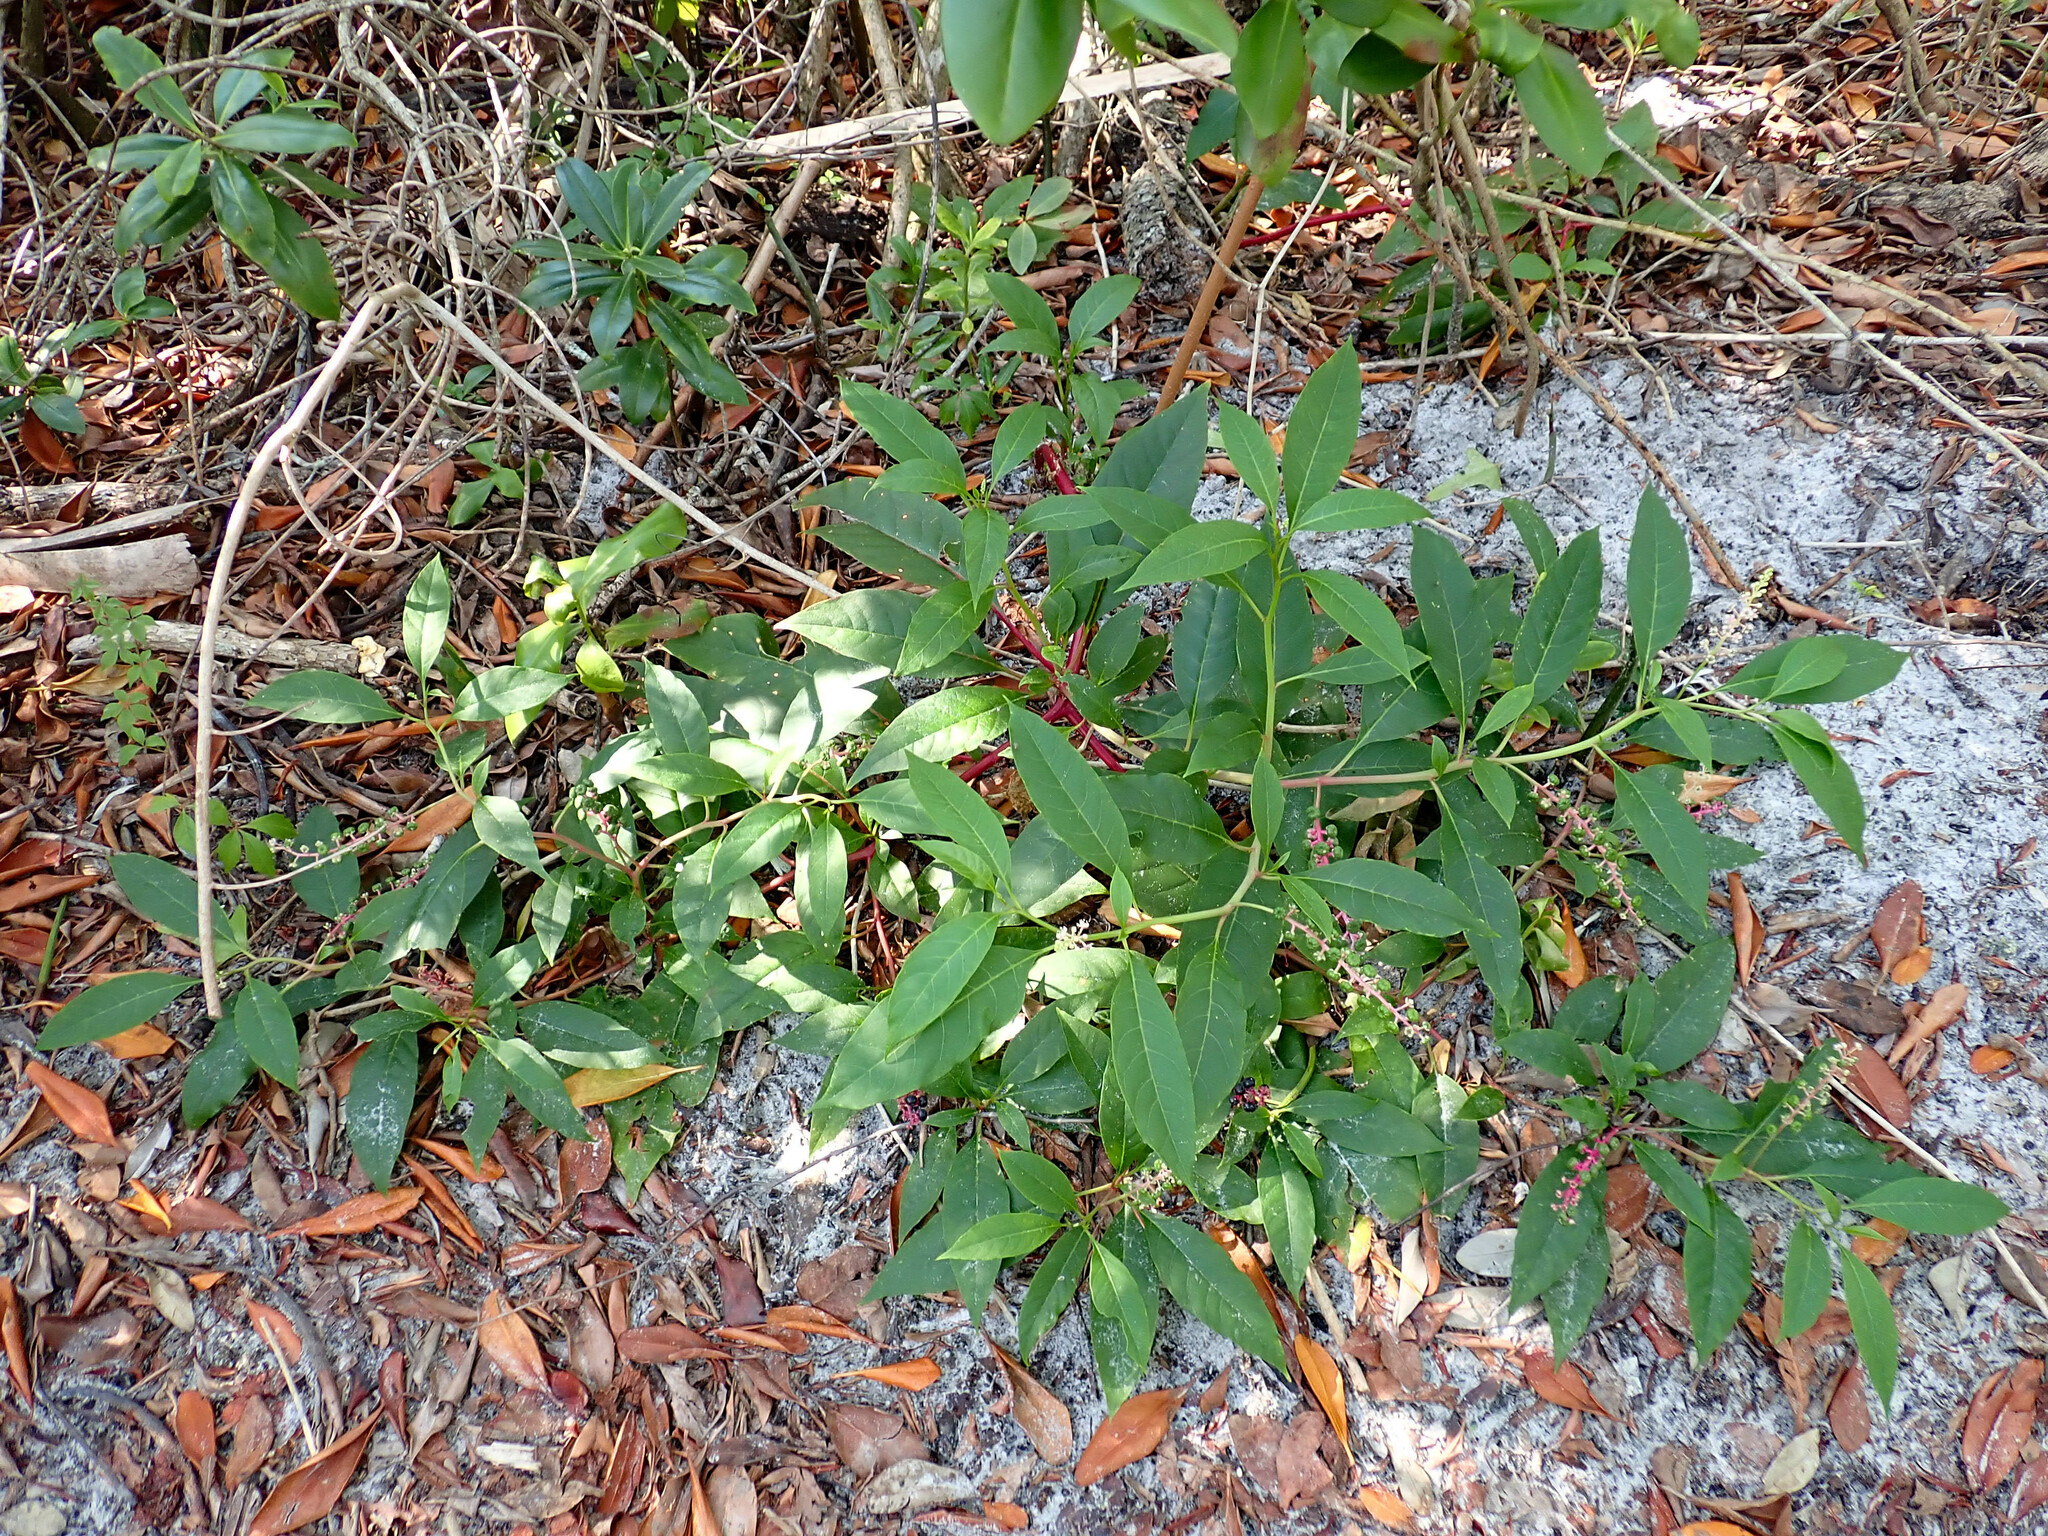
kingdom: Plantae
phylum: Tracheophyta
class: Magnoliopsida
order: Caryophyllales
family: Phytolaccaceae
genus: Phytolacca
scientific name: Phytolacca americana
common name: American pokeweed
